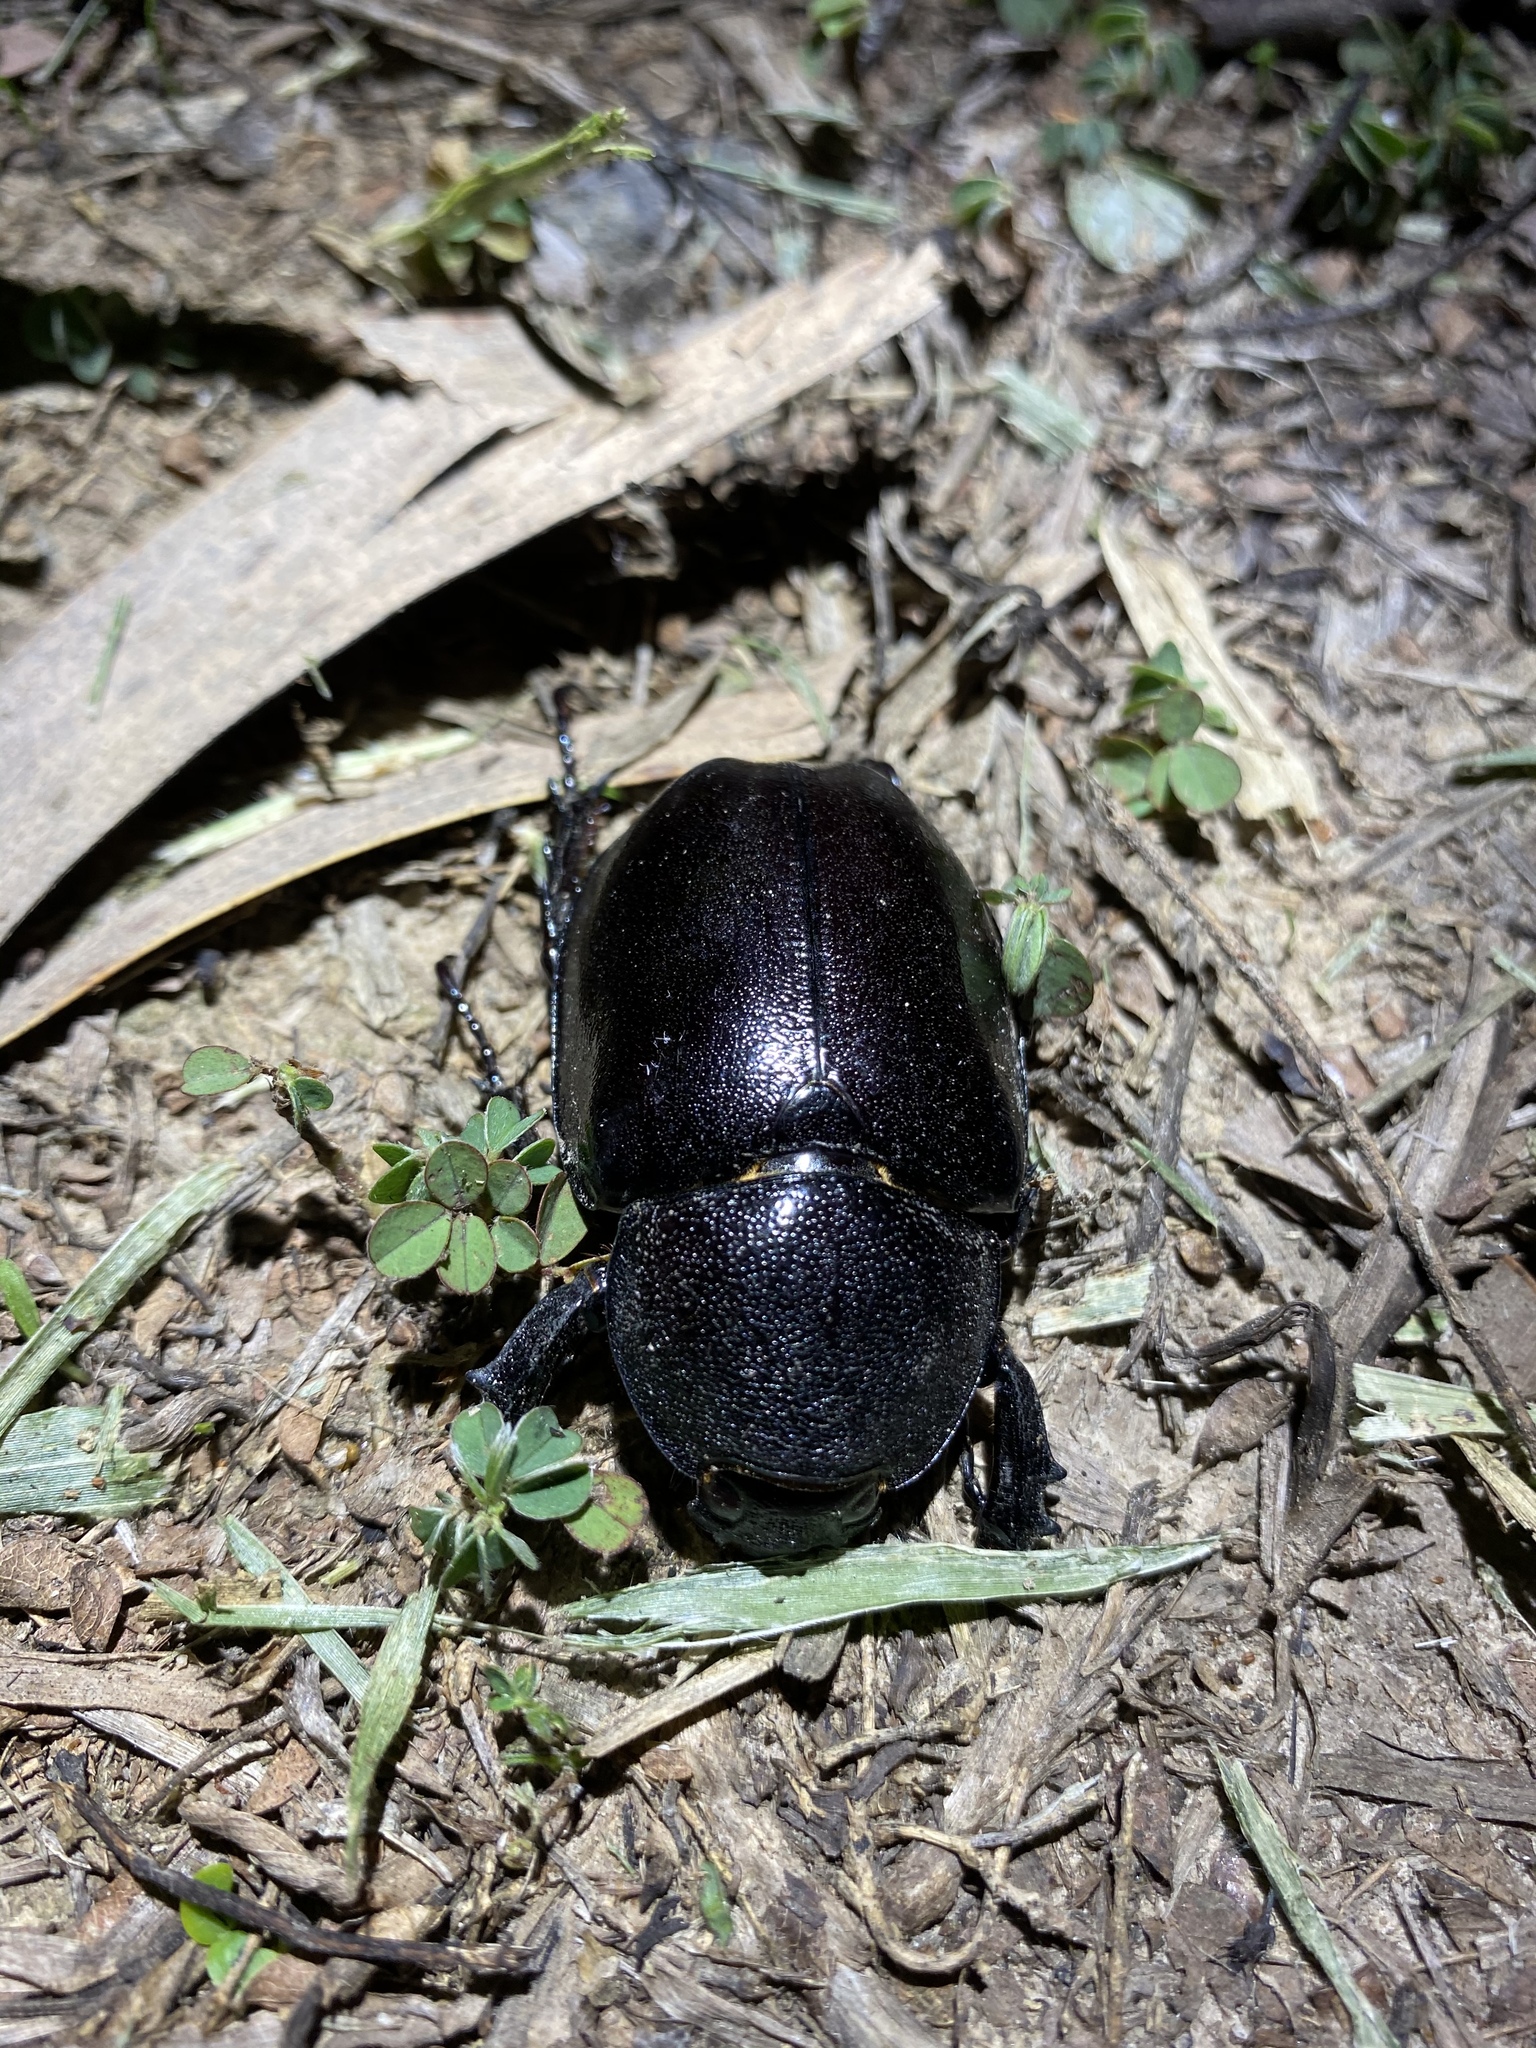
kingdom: Animalia
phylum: Arthropoda
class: Insecta
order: Coleoptera
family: Scarabaeidae
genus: Xylotrupes
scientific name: Xylotrupes australicus
